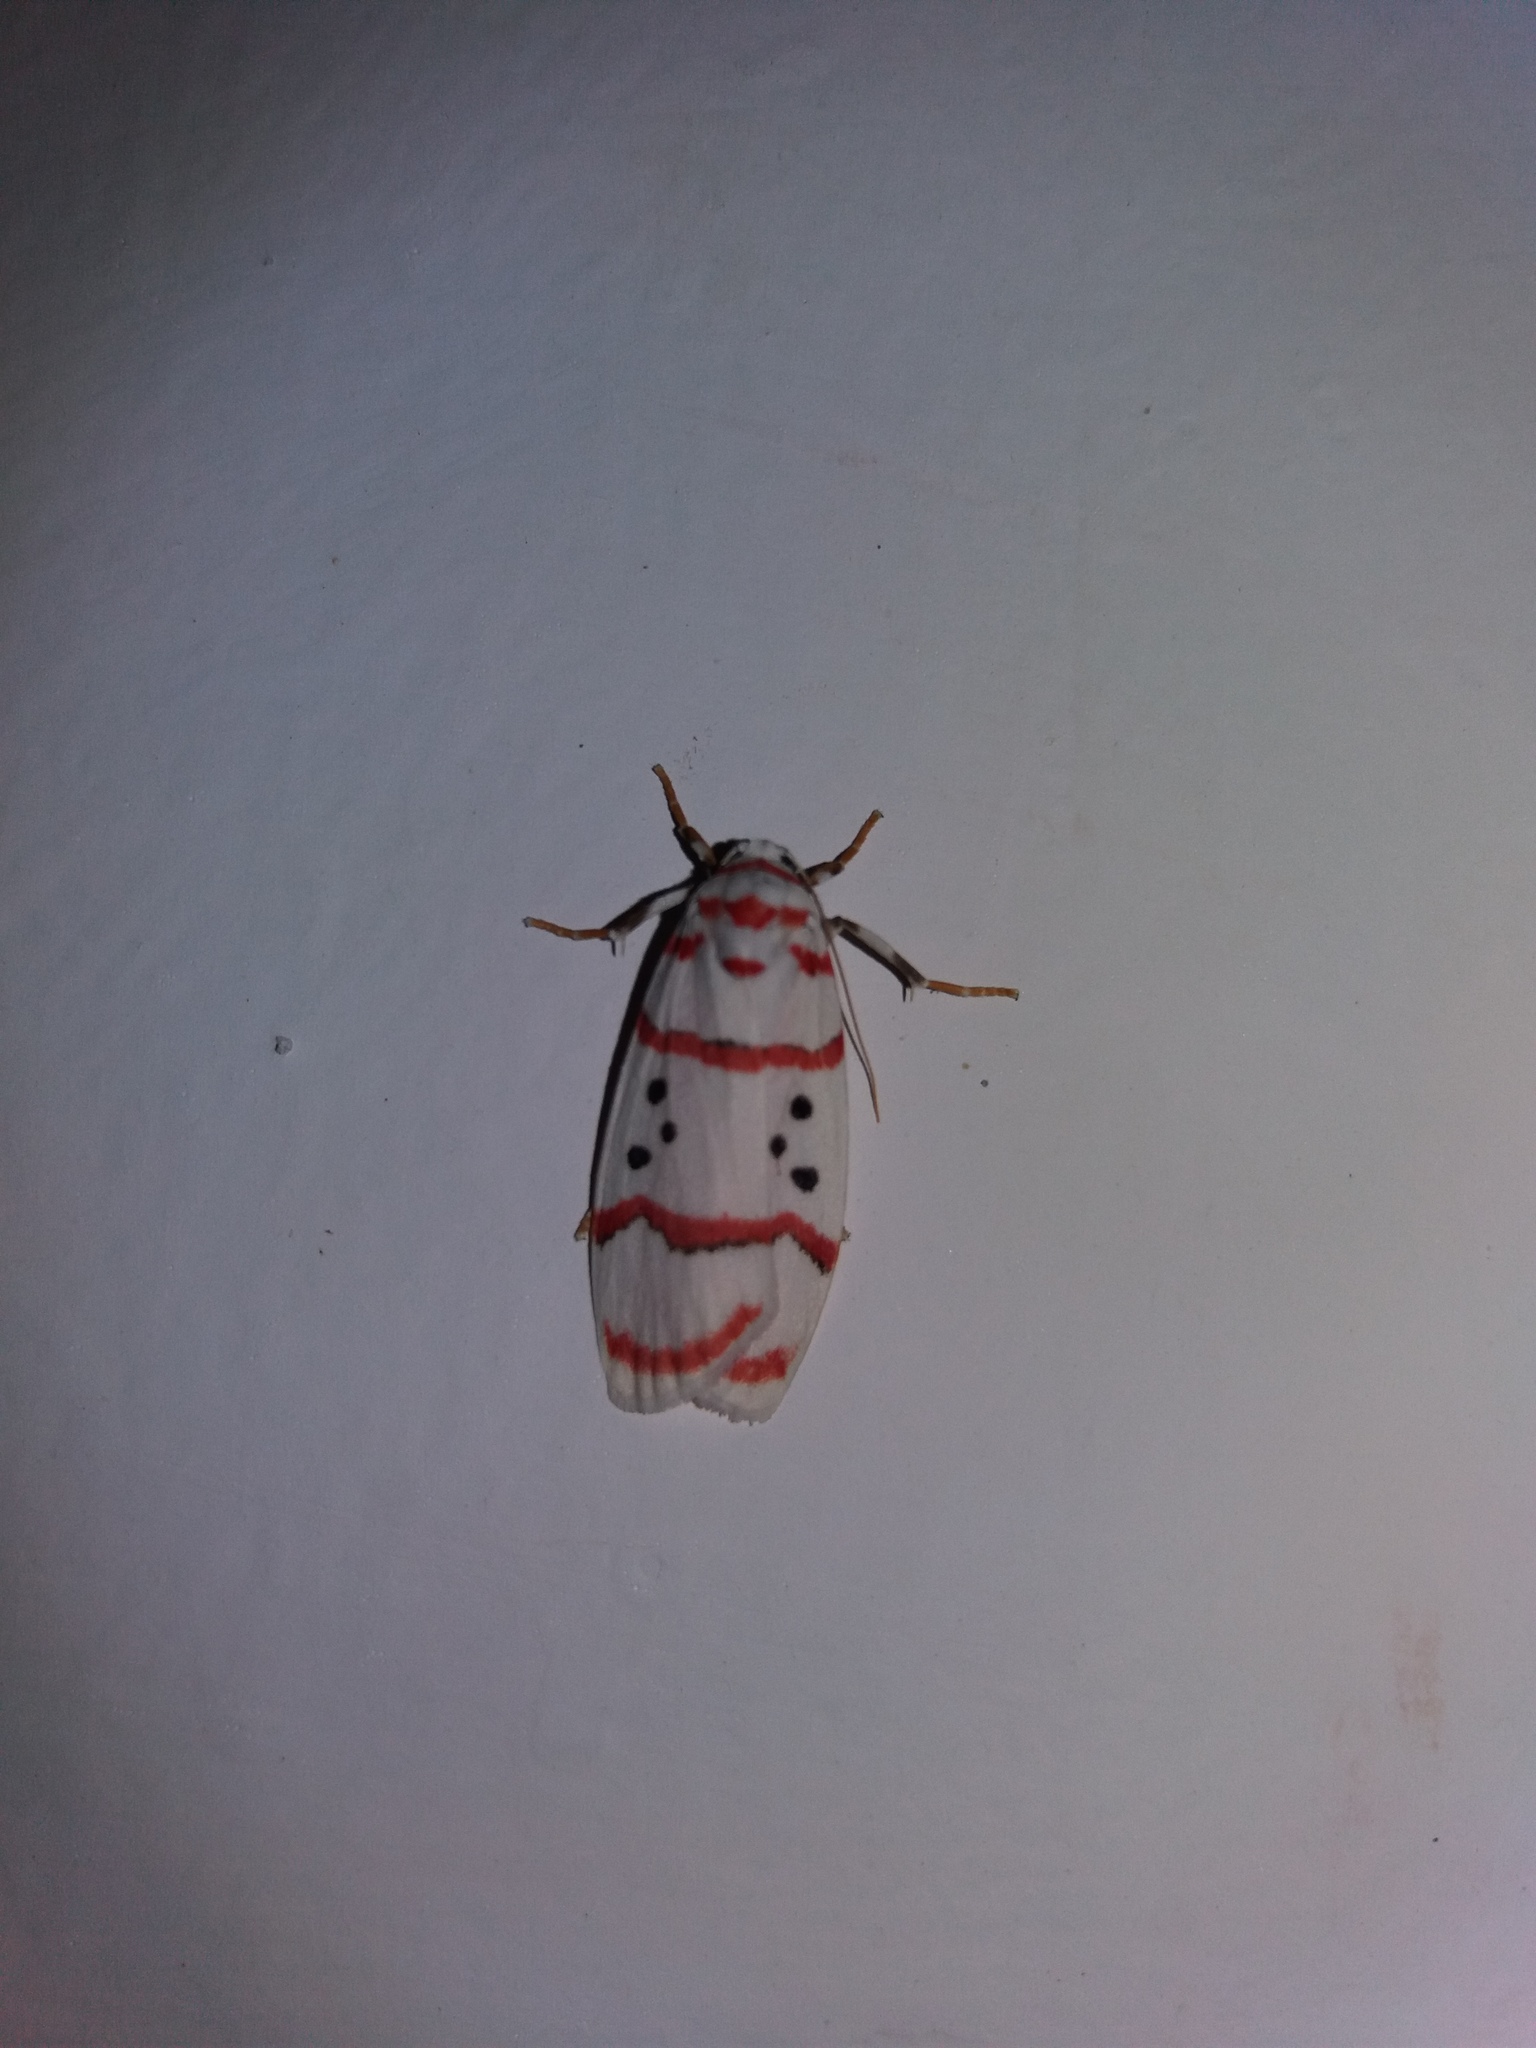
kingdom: Animalia
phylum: Arthropoda
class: Insecta
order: Lepidoptera
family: Erebidae
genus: Cyana
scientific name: Cyana linatula
